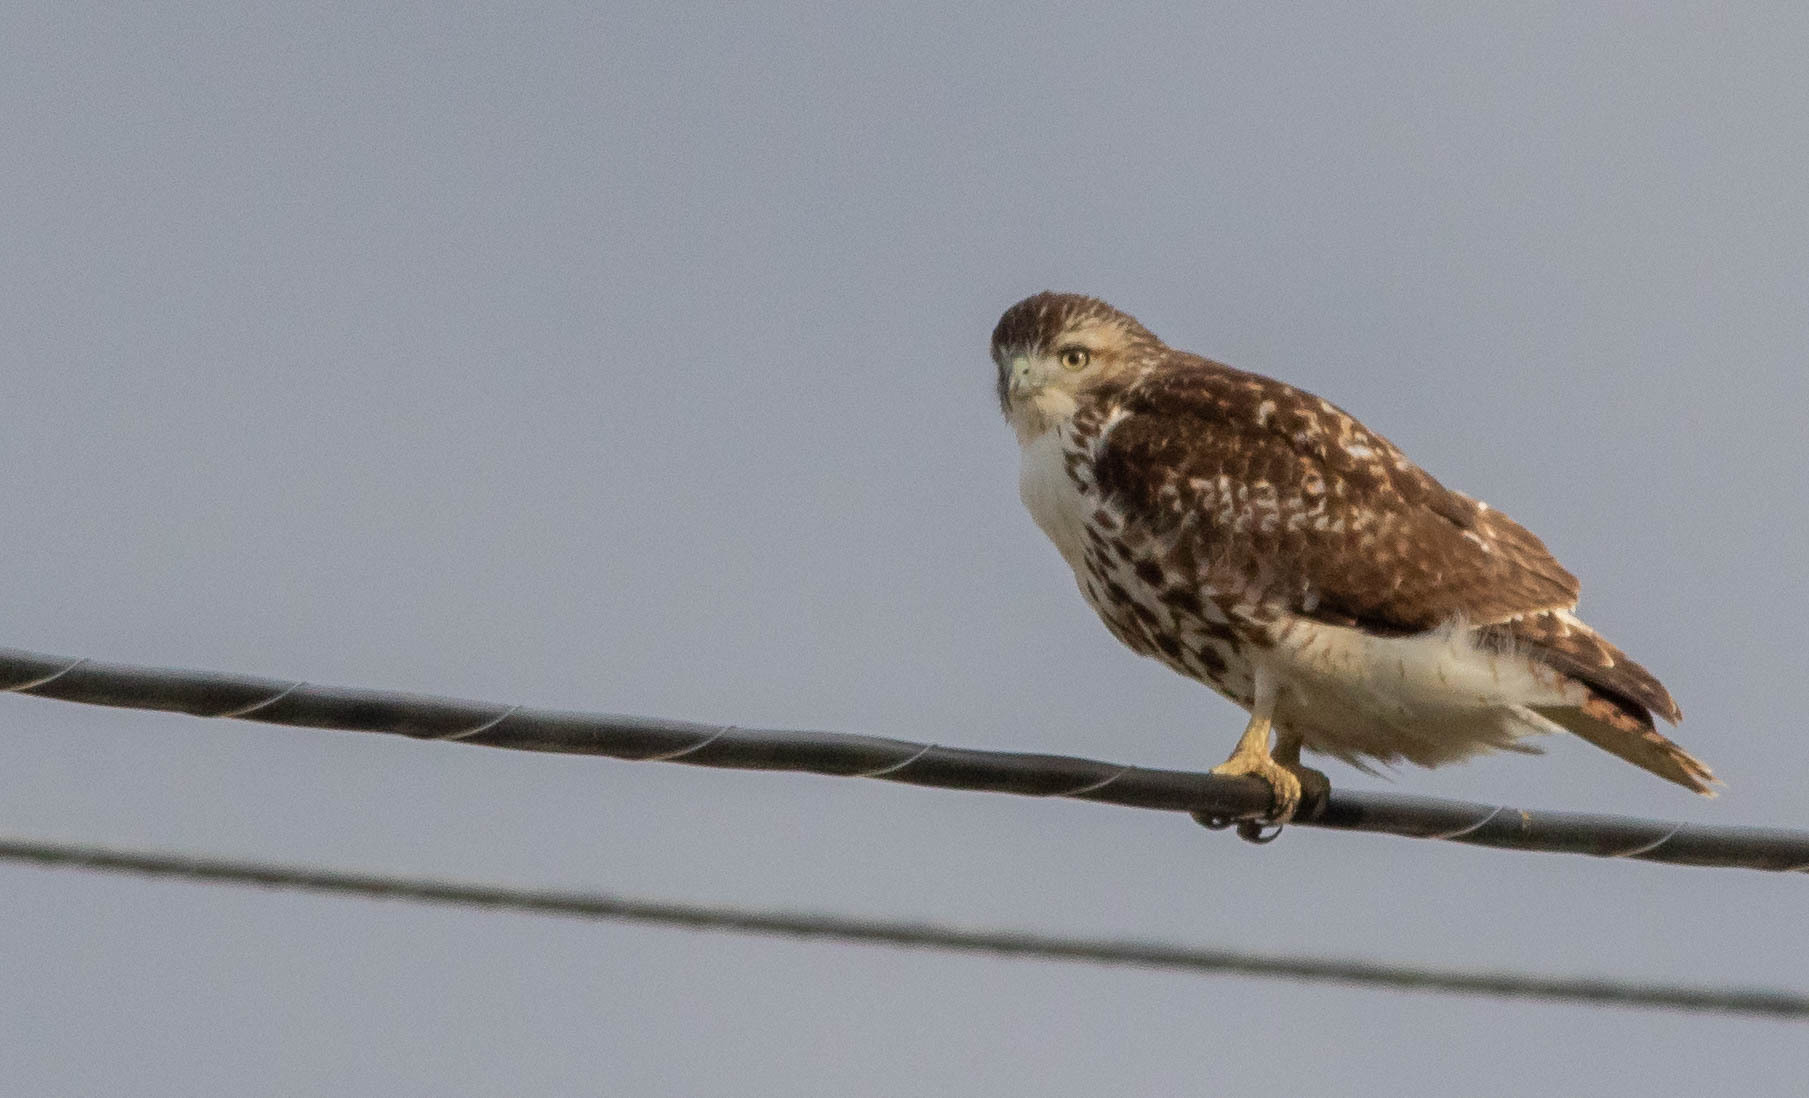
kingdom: Animalia
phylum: Chordata
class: Aves
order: Accipitriformes
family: Accipitridae
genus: Buteo
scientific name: Buteo jamaicensis
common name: Red-tailed hawk
